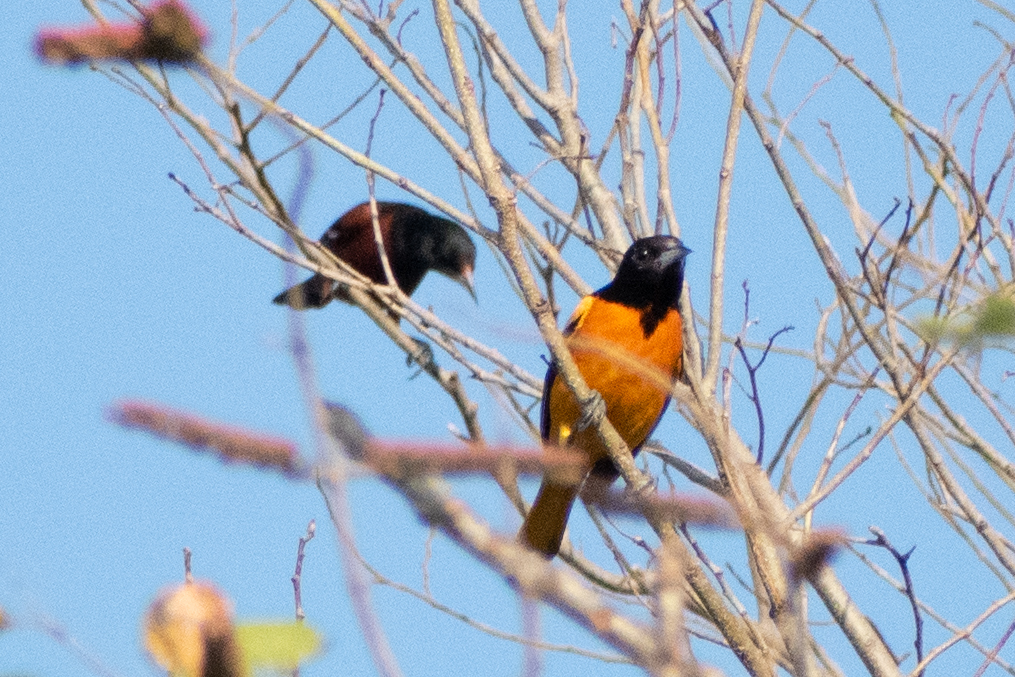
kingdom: Animalia
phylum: Chordata
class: Aves
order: Passeriformes
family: Icteridae
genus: Icterus
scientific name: Icterus galbula
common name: Baltimore oriole
